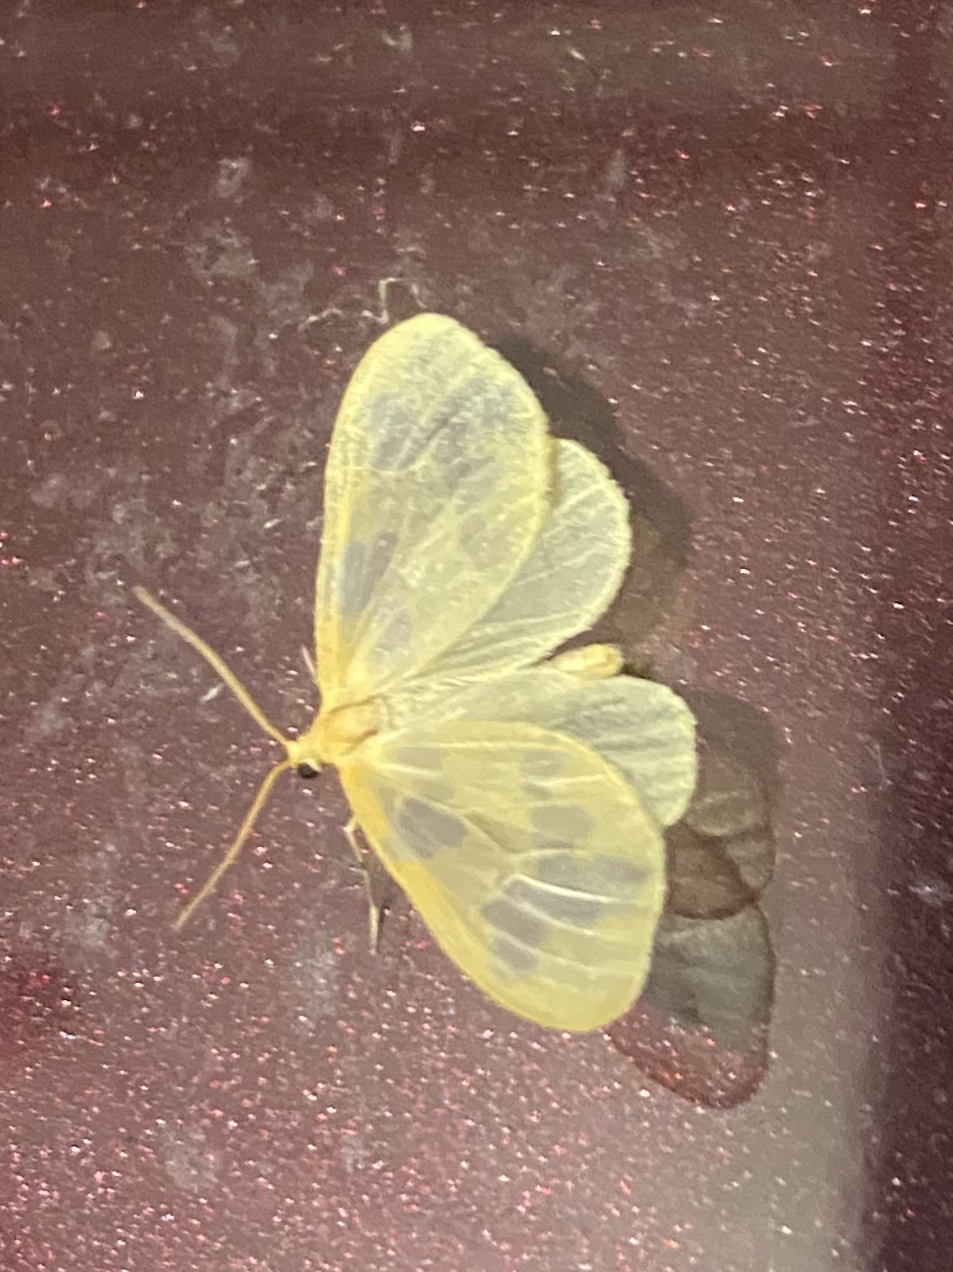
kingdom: Animalia
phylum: Arthropoda
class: Insecta
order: Lepidoptera
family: Geometridae
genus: Eubaphe
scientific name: Eubaphe mendica
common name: Beggar
